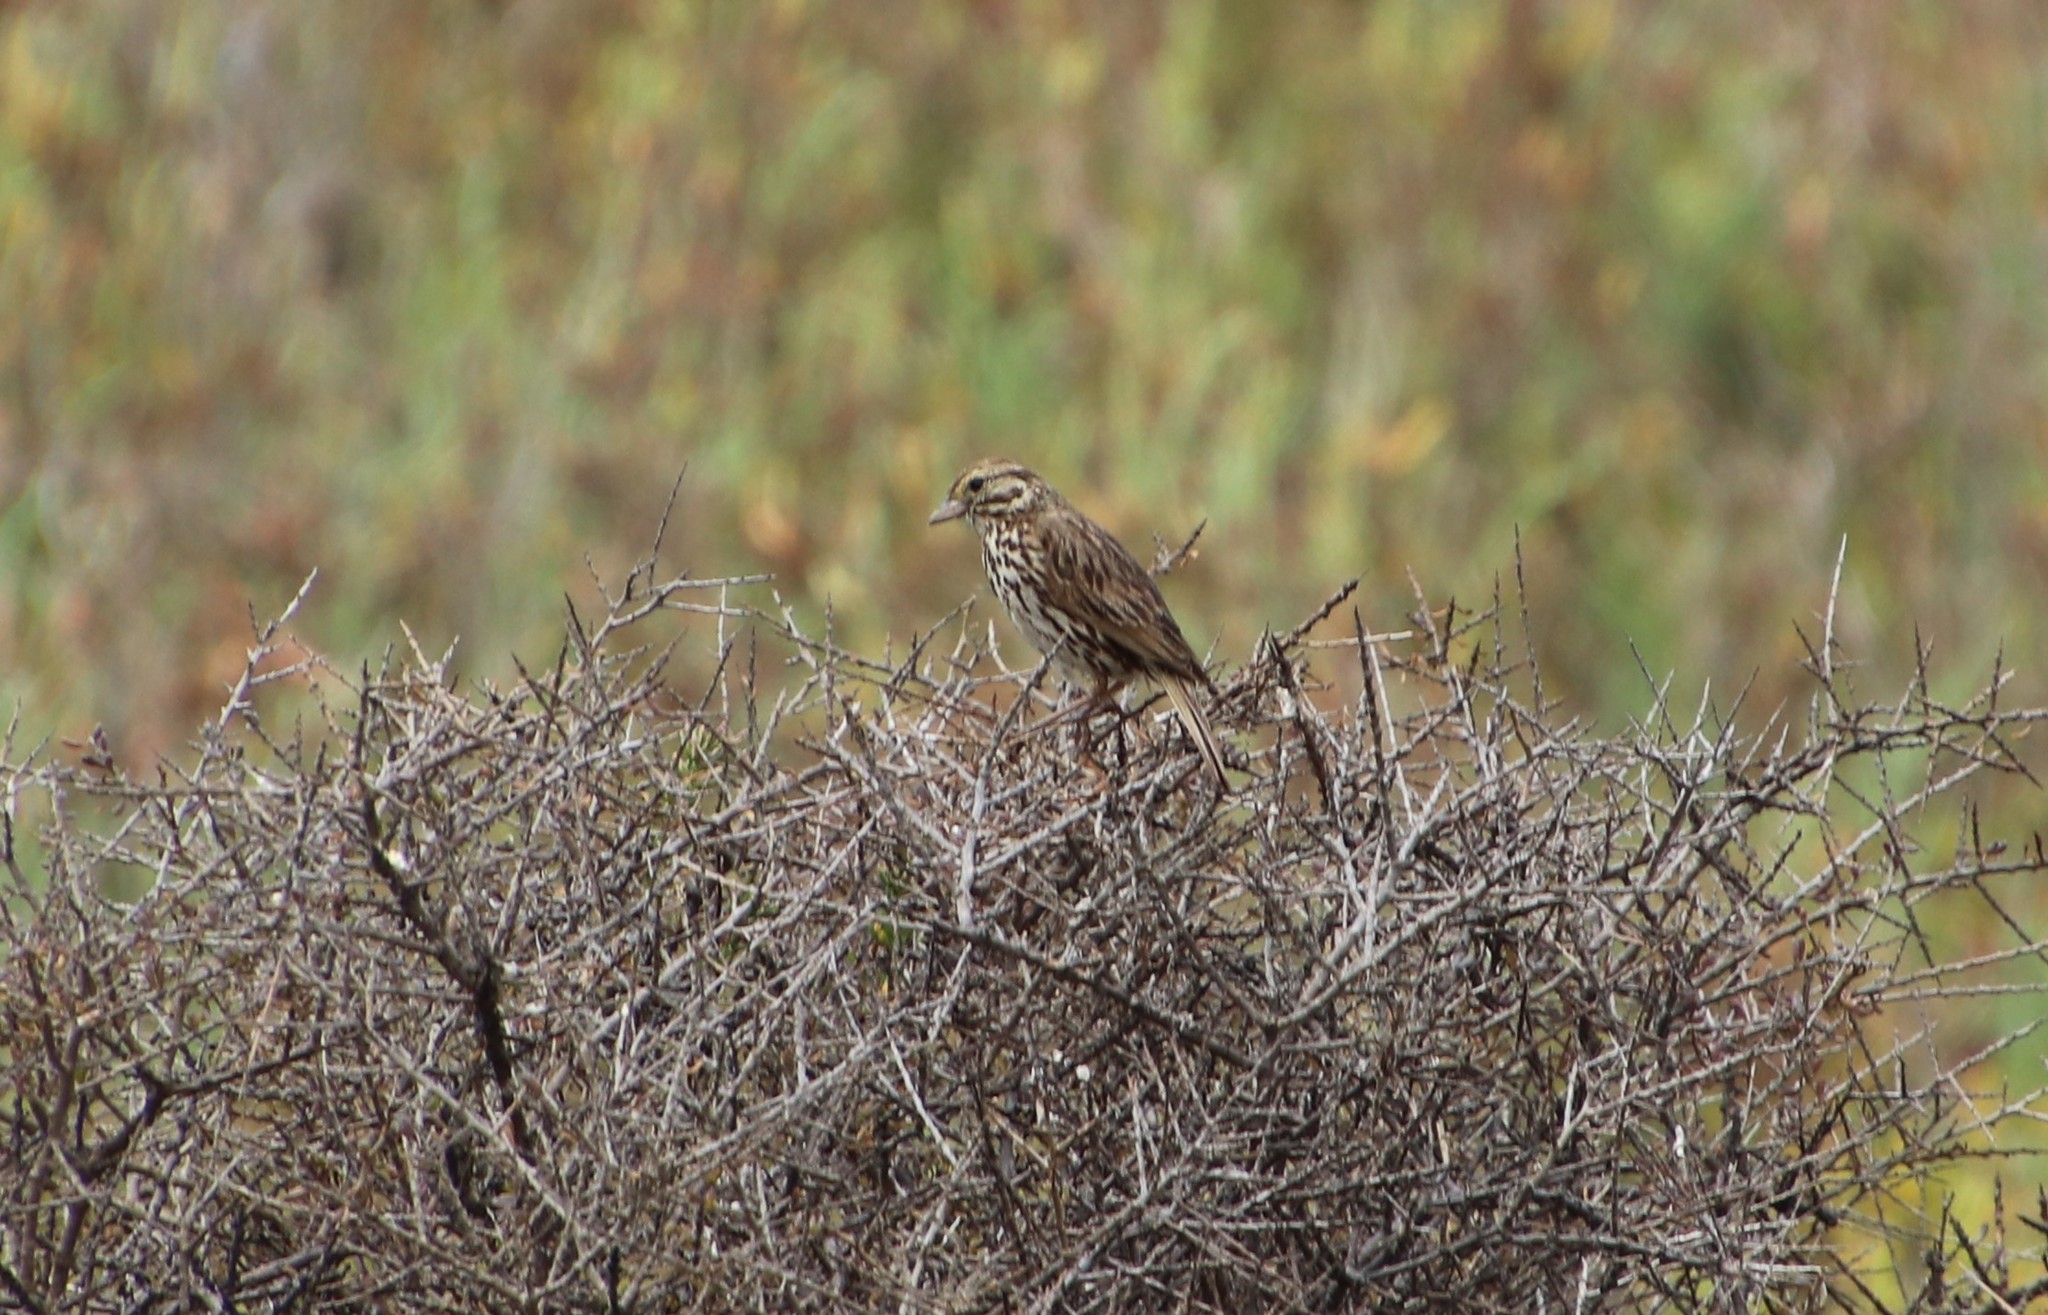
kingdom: Animalia
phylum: Chordata
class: Aves
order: Passeriformes
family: Passerellidae
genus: Passerculus
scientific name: Passerculus sandwichensis
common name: Savannah sparrow
